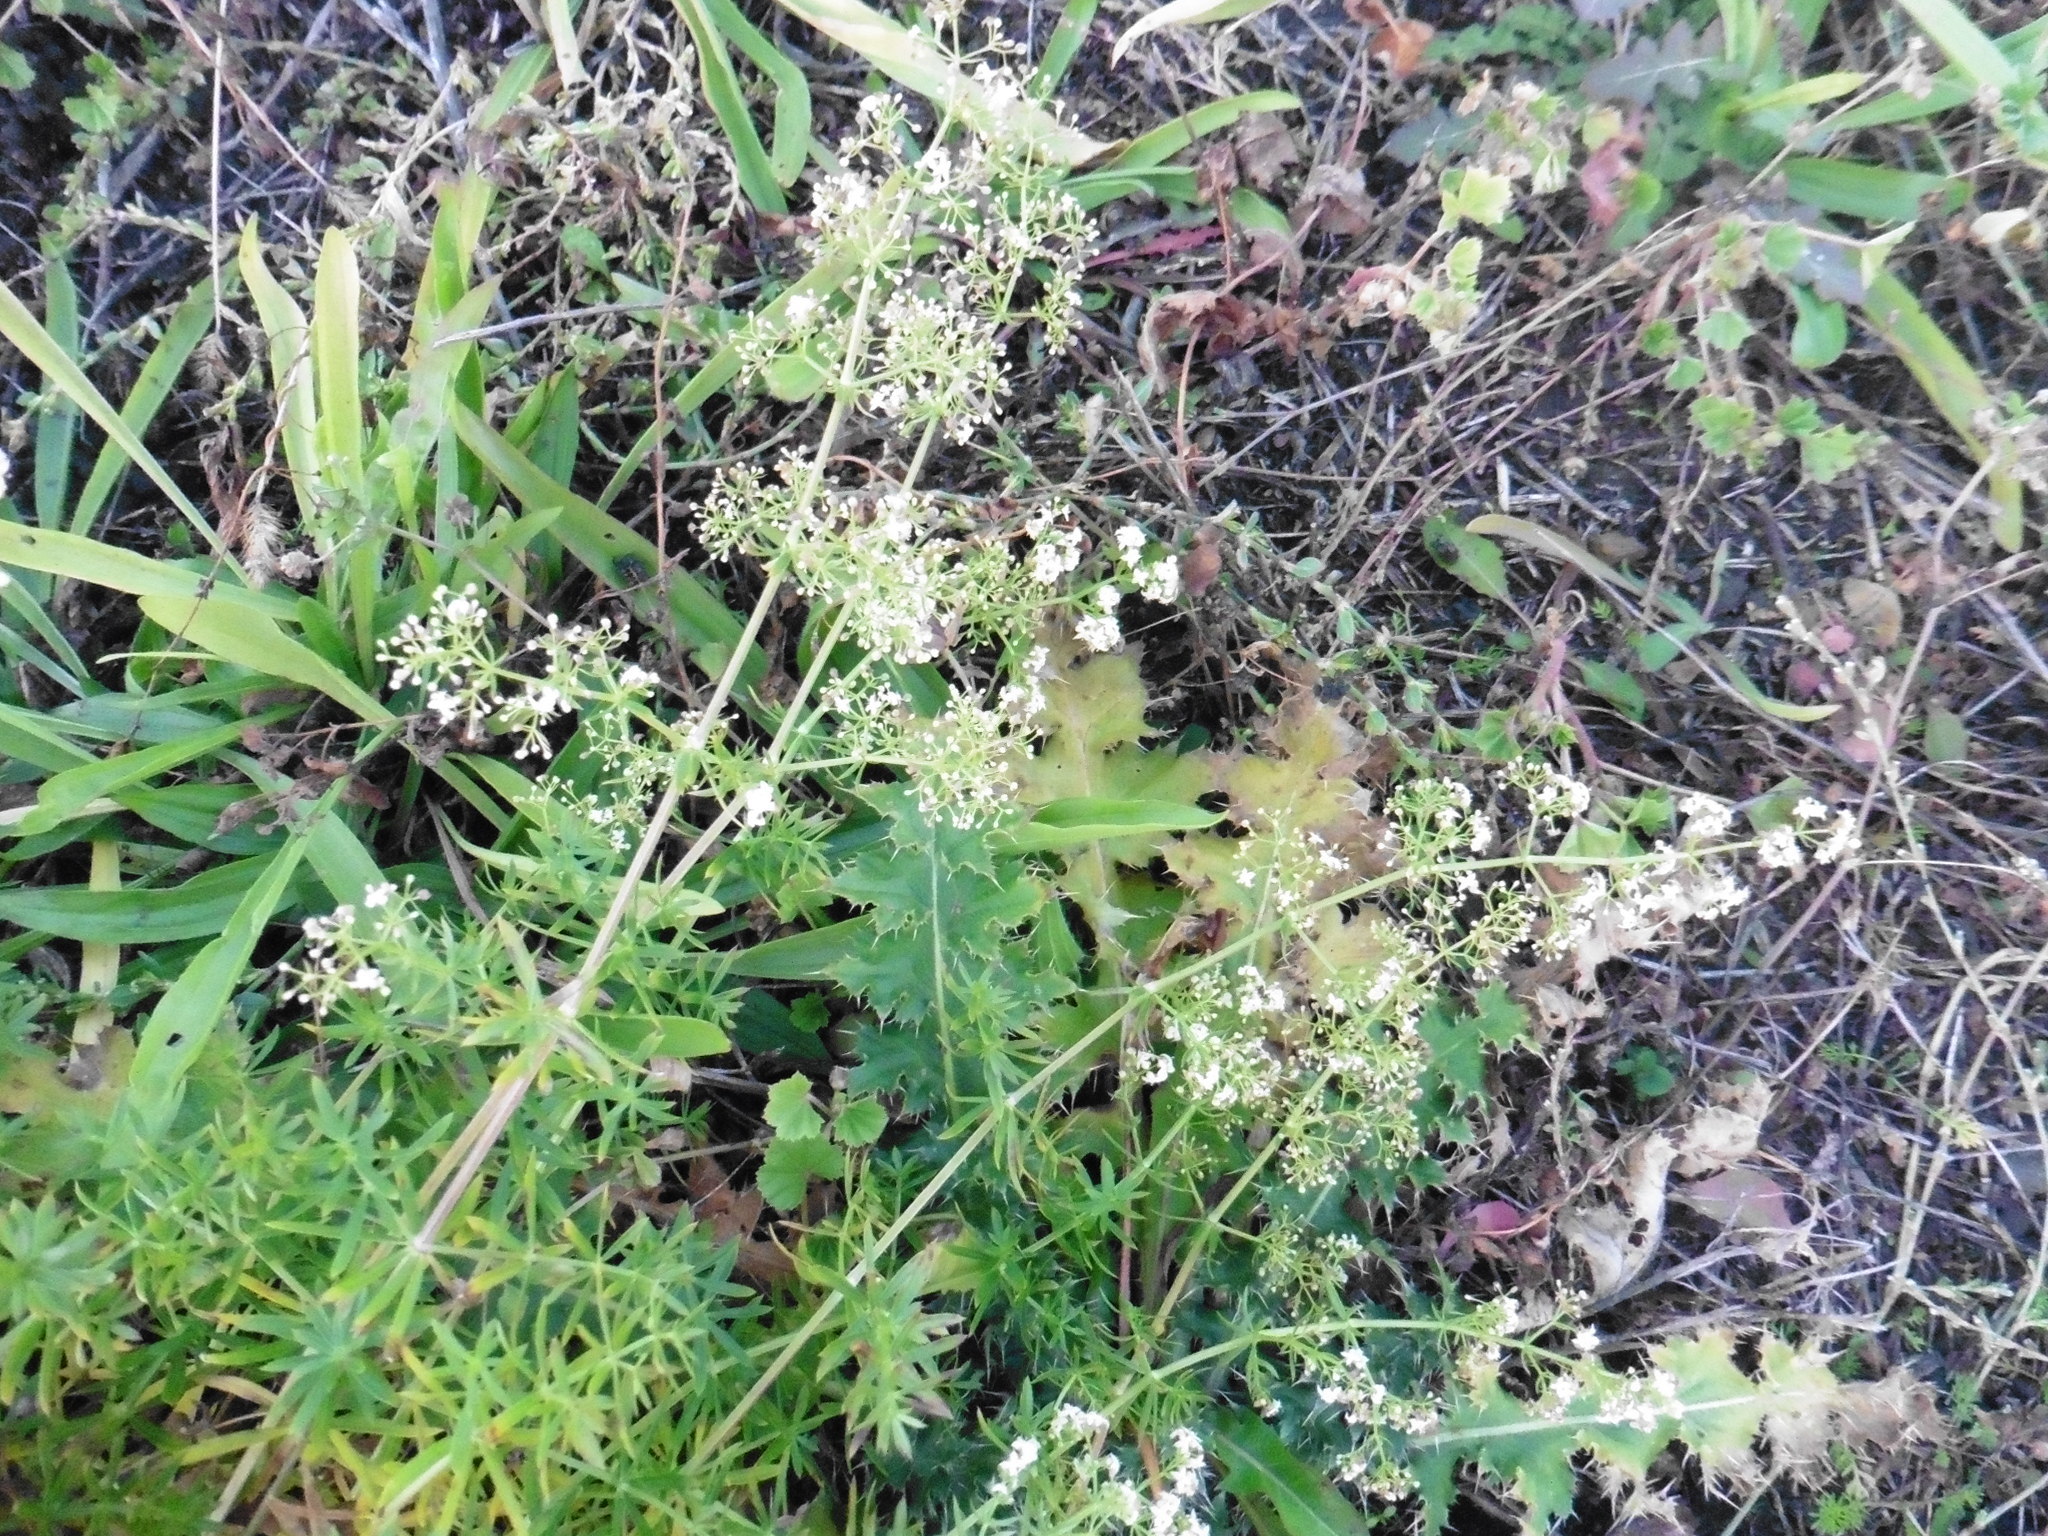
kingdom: Plantae
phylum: Tracheophyta
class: Magnoliopsida
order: Gentianales
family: Rubiaceae
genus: Galium
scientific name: Galium mollugo
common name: Hedge bedstraw
